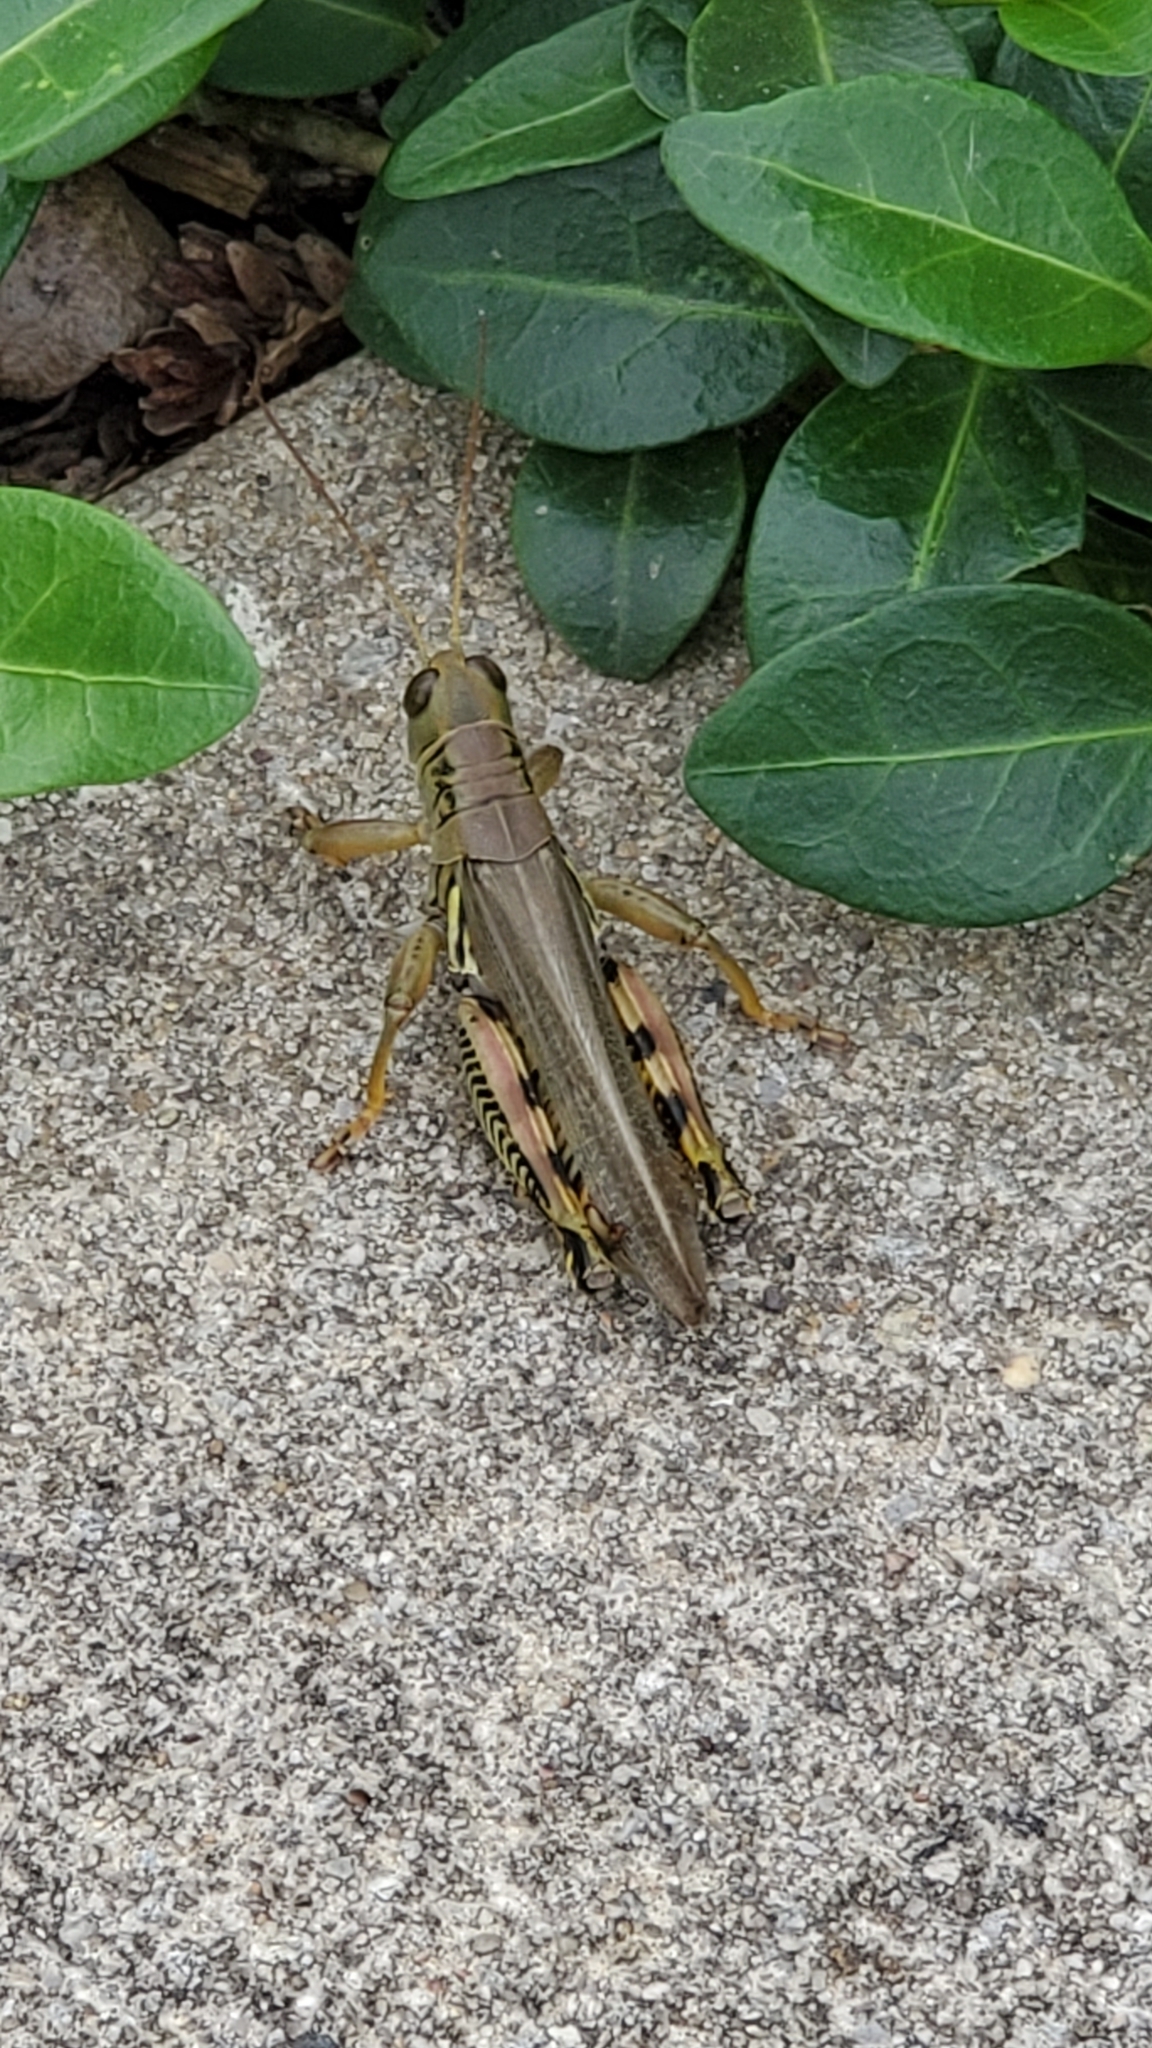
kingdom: Animalia
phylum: Arthropoda
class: Insecta
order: Orthoptera
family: Acrididae
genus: Melanoplus
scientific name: Melanoplus differentialis
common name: Differential grasshopper
